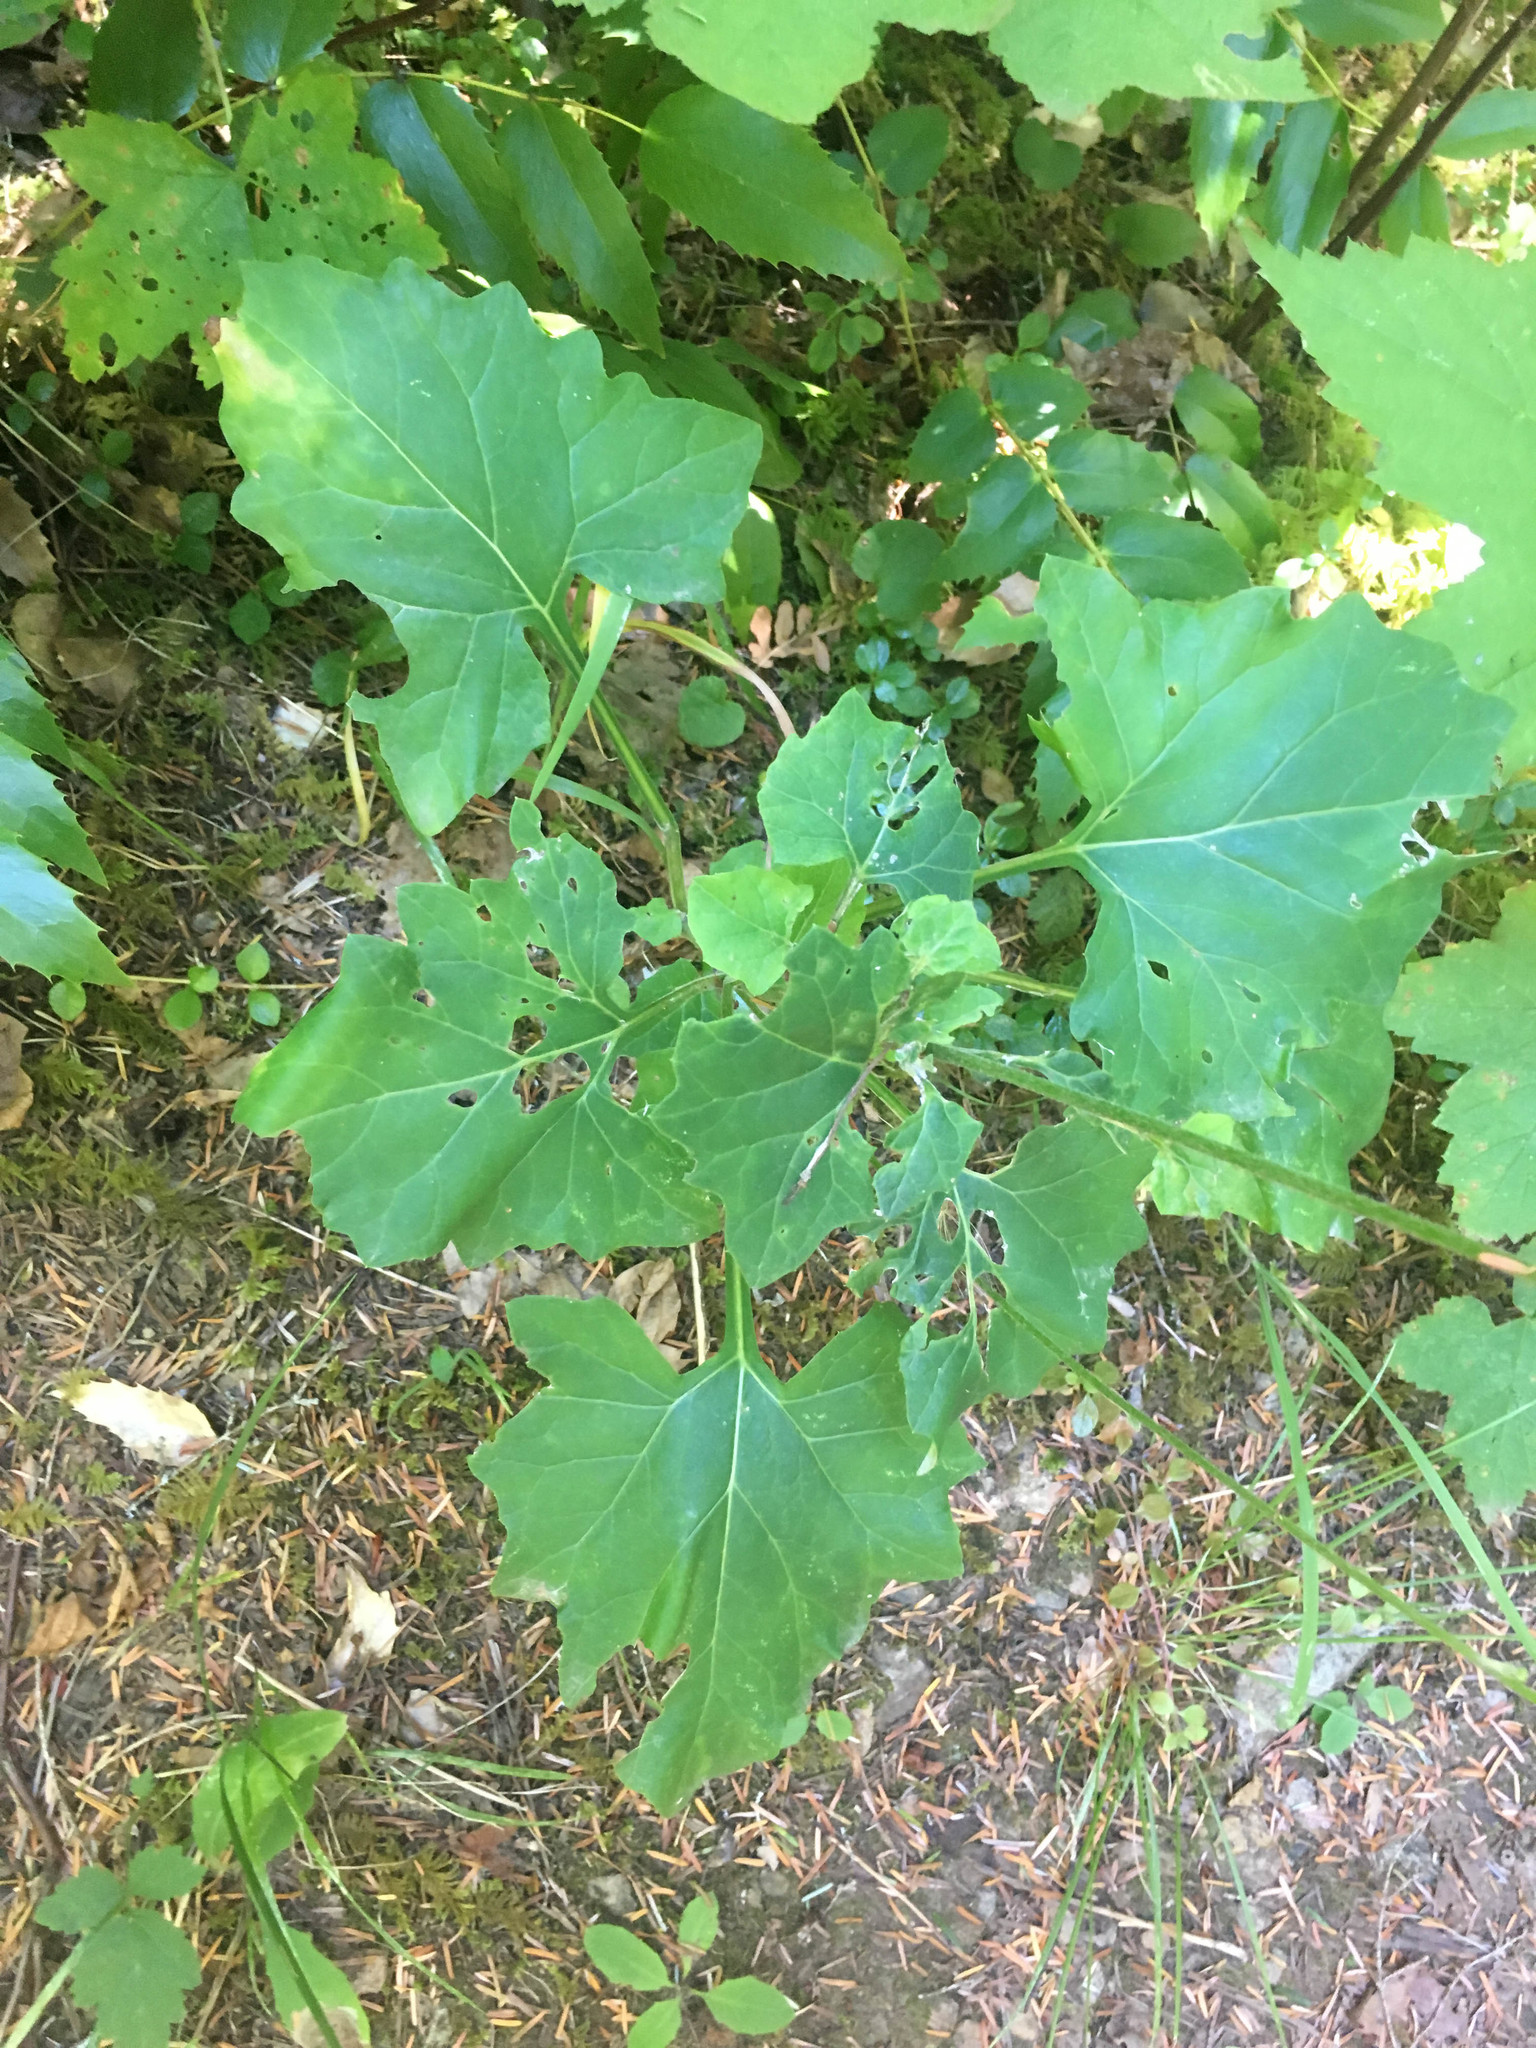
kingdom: Plantae
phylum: Tracheophyta
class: Magnoliopsida
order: Asterales
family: Asteraceae
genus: Adenocaulon
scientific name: Adenocaulon bicolor
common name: Trailplant
